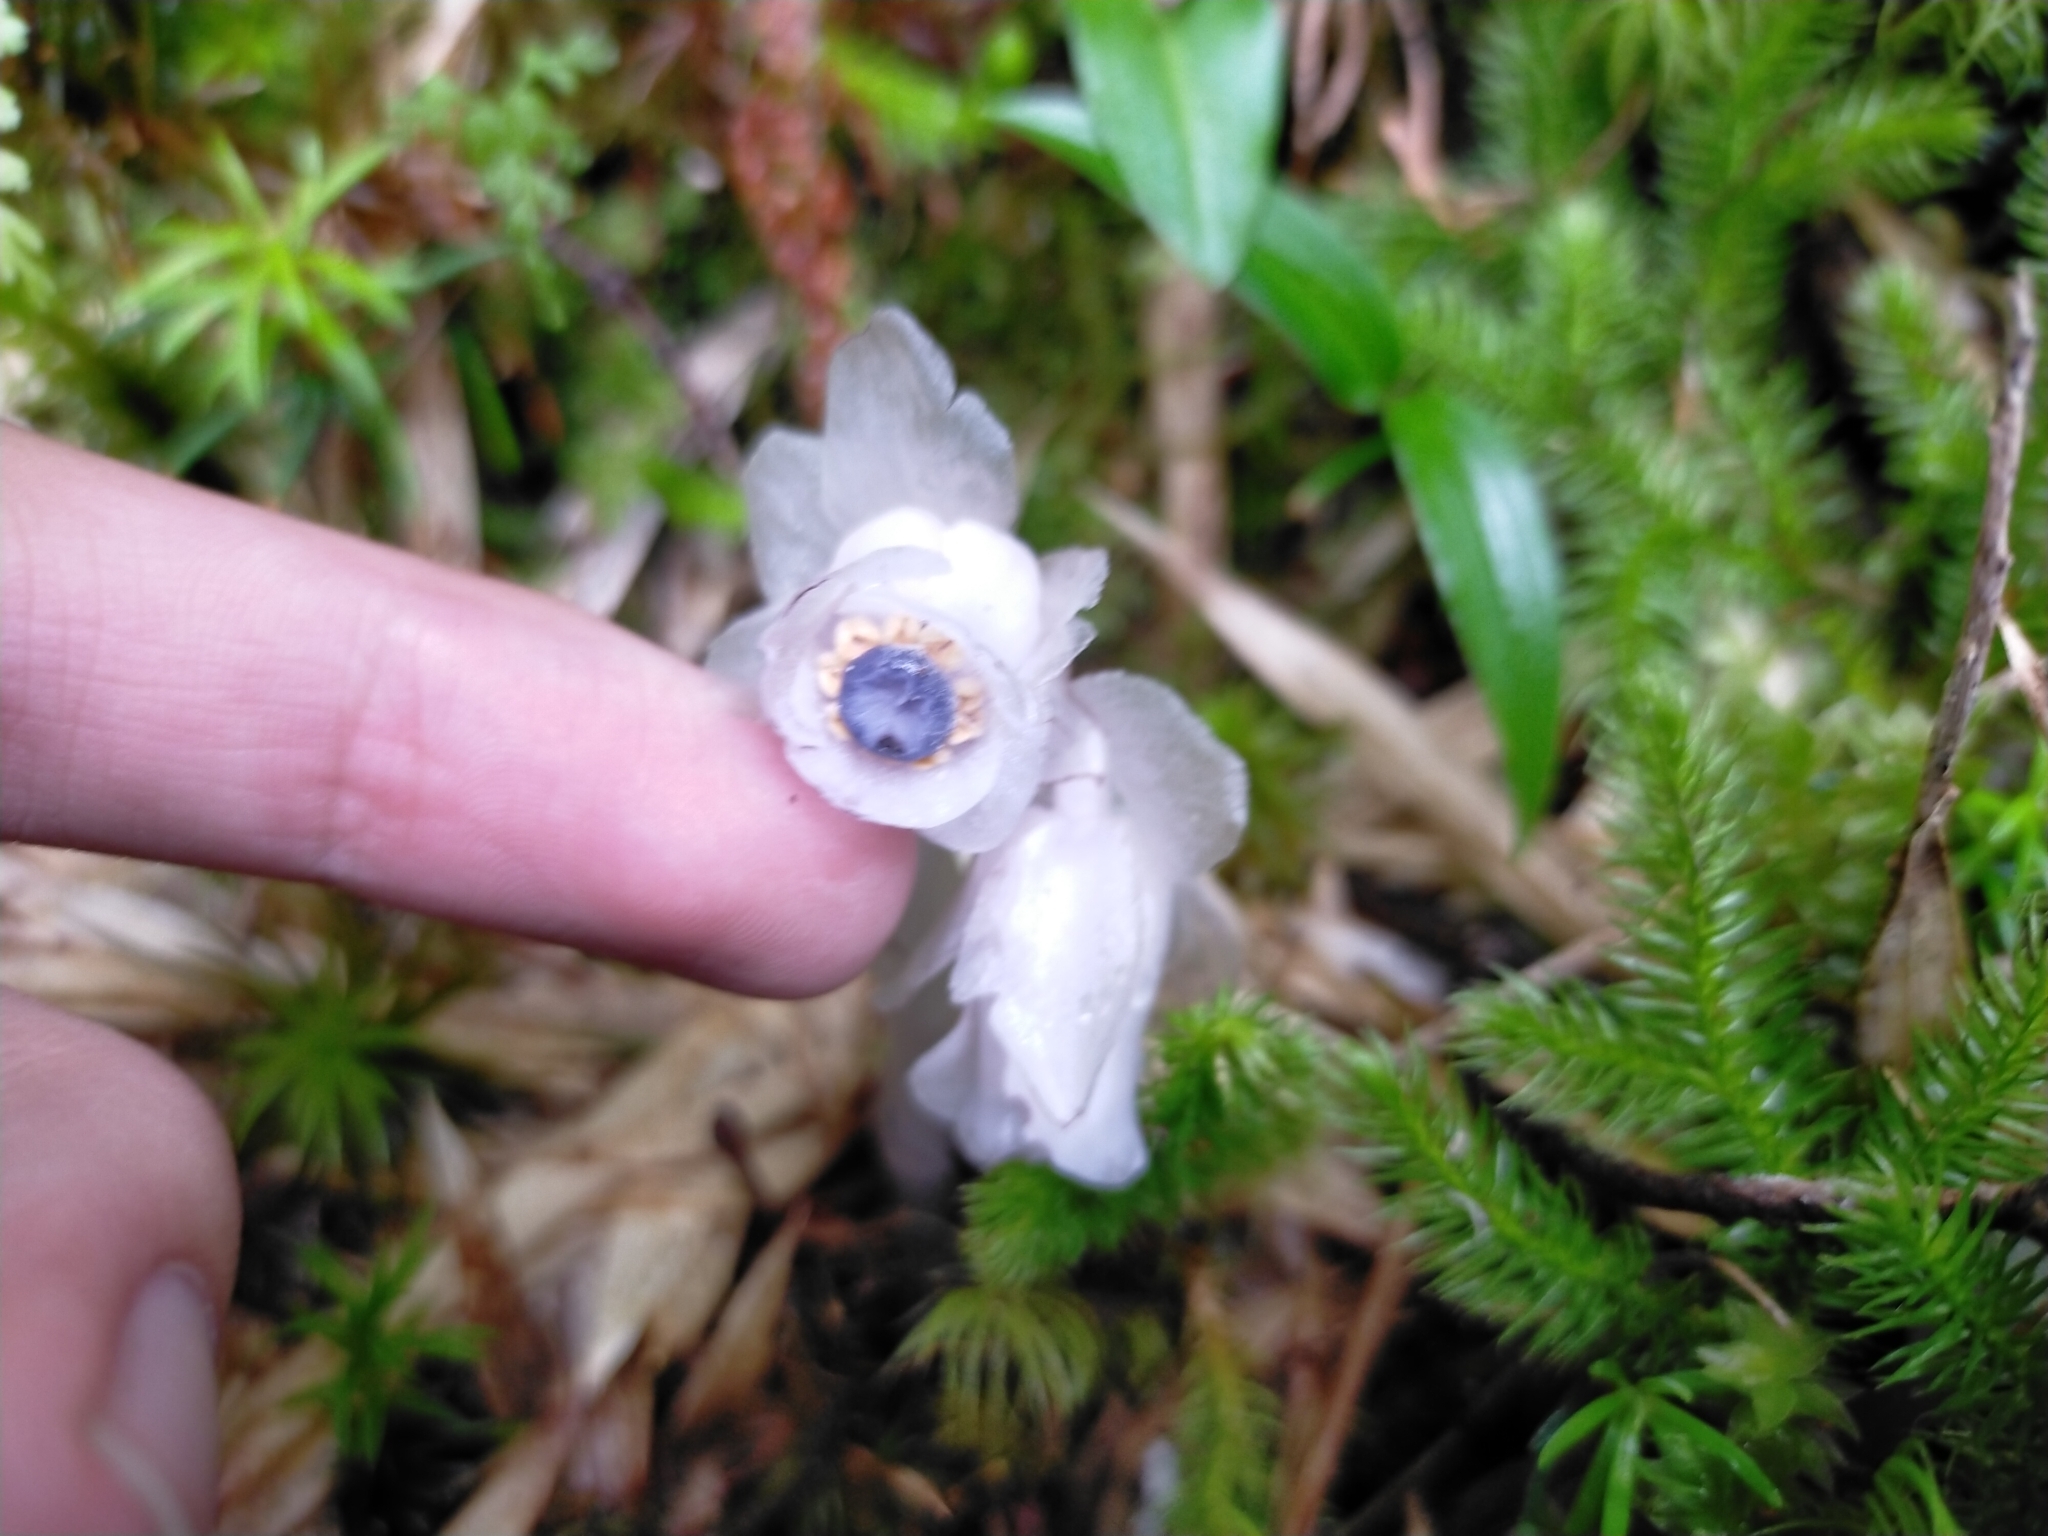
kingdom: Plantae
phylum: Tracheophyta
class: Magnoliopsida
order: Ericales
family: Ericaceae
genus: Monotropastrum
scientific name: Monotropastrum humile
